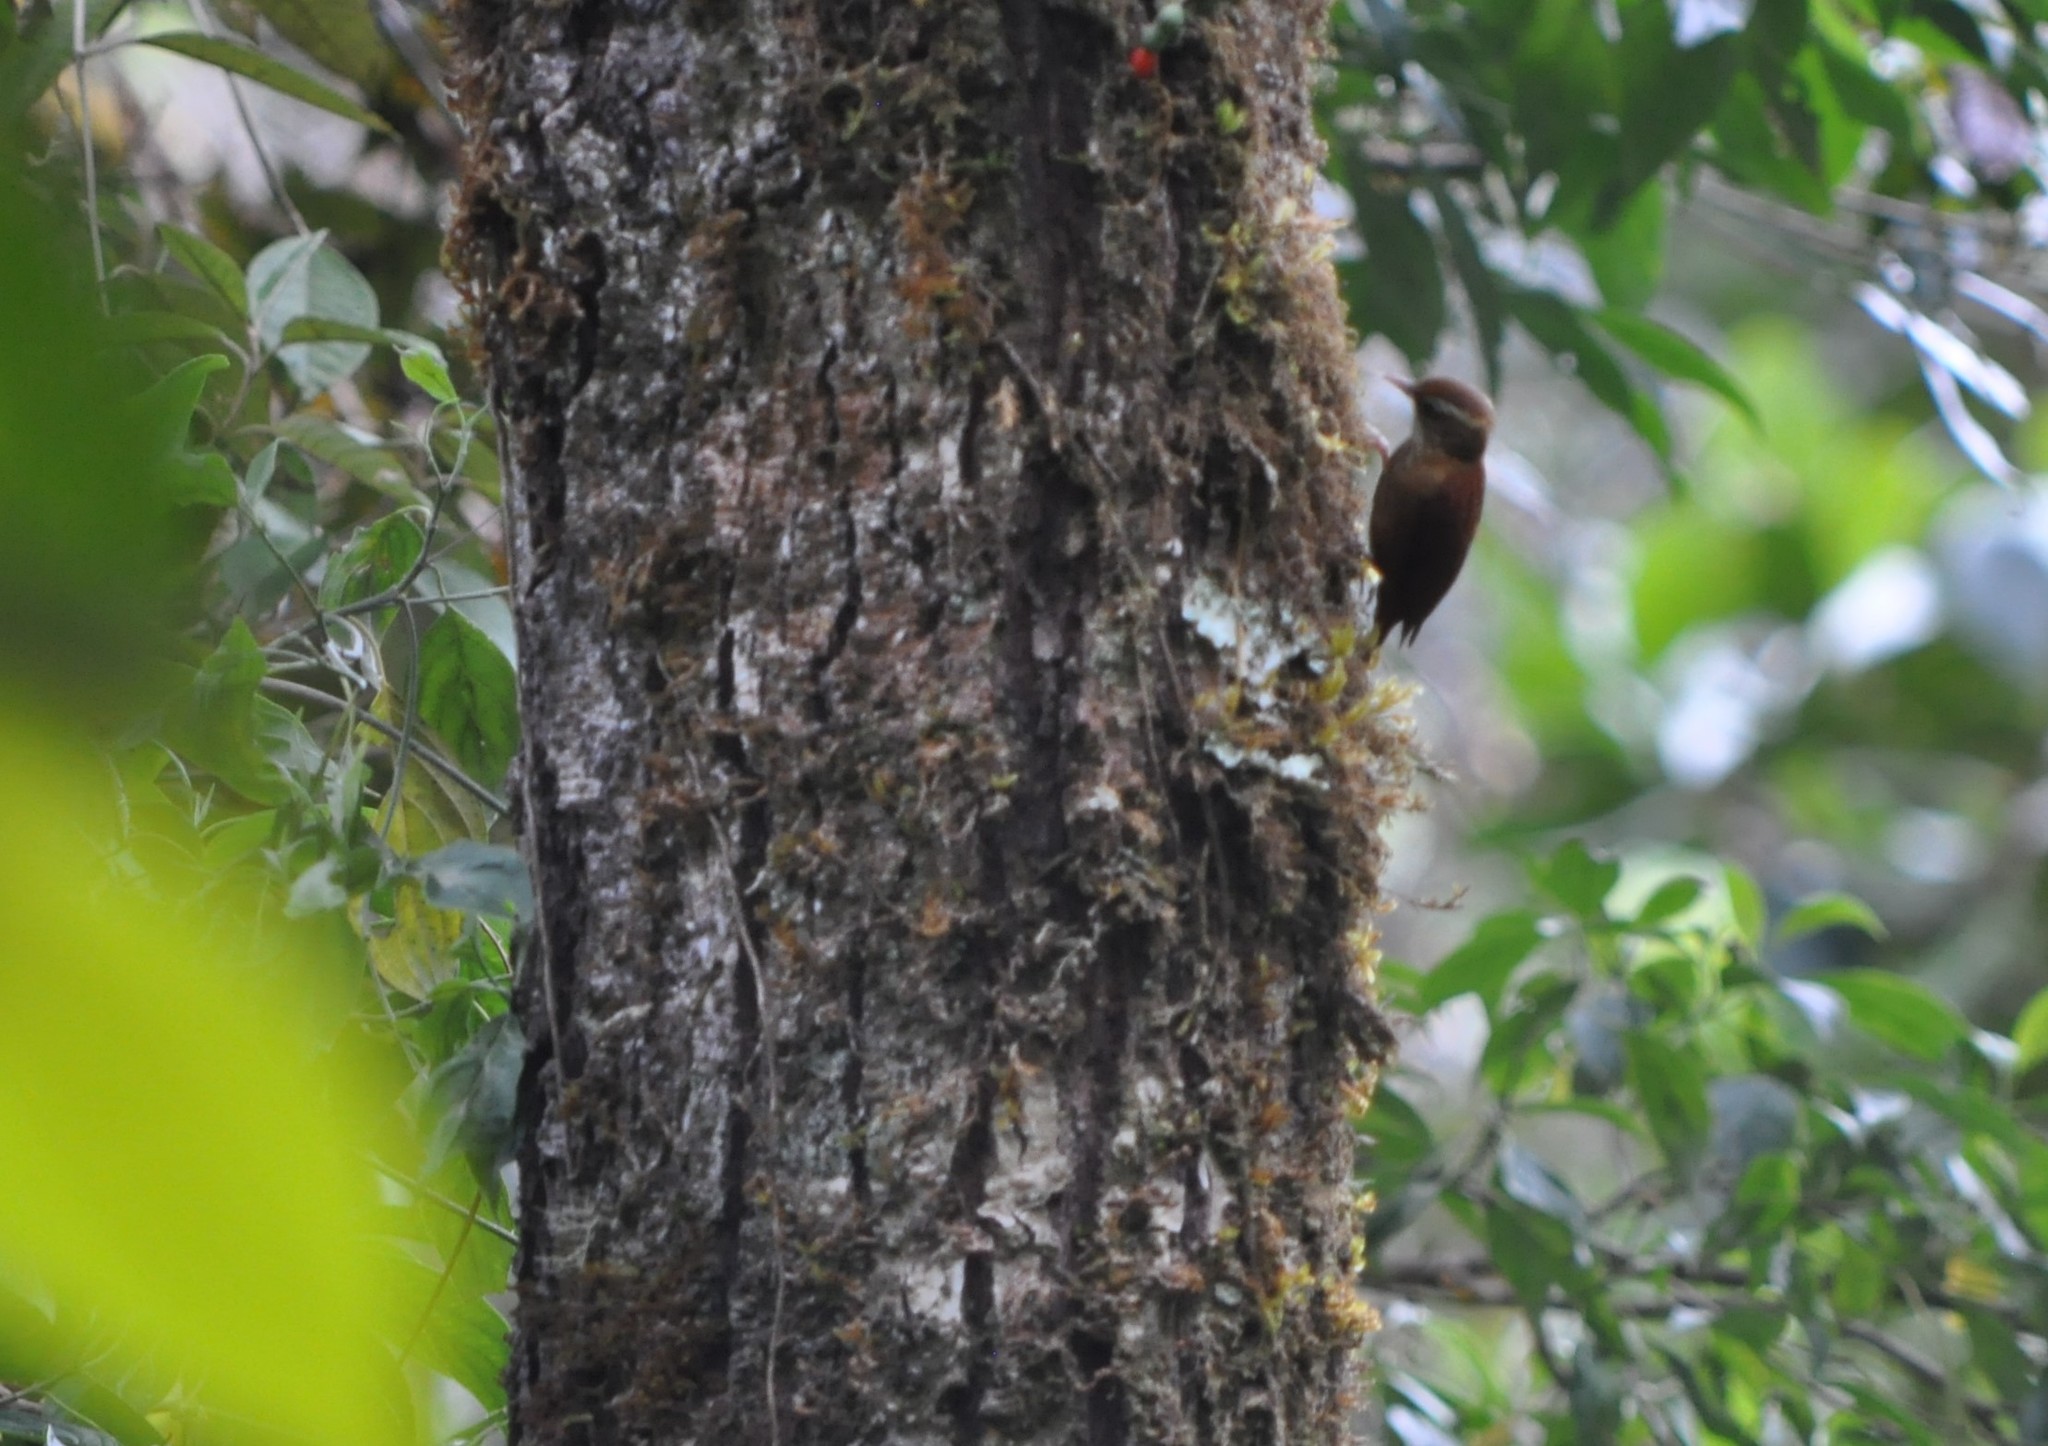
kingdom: Animalia
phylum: Chordata
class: Aves
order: Passeriformes
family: Furnariidae
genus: Margarornis
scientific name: Margarornis rubiginosus
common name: Ruddy treerunner
